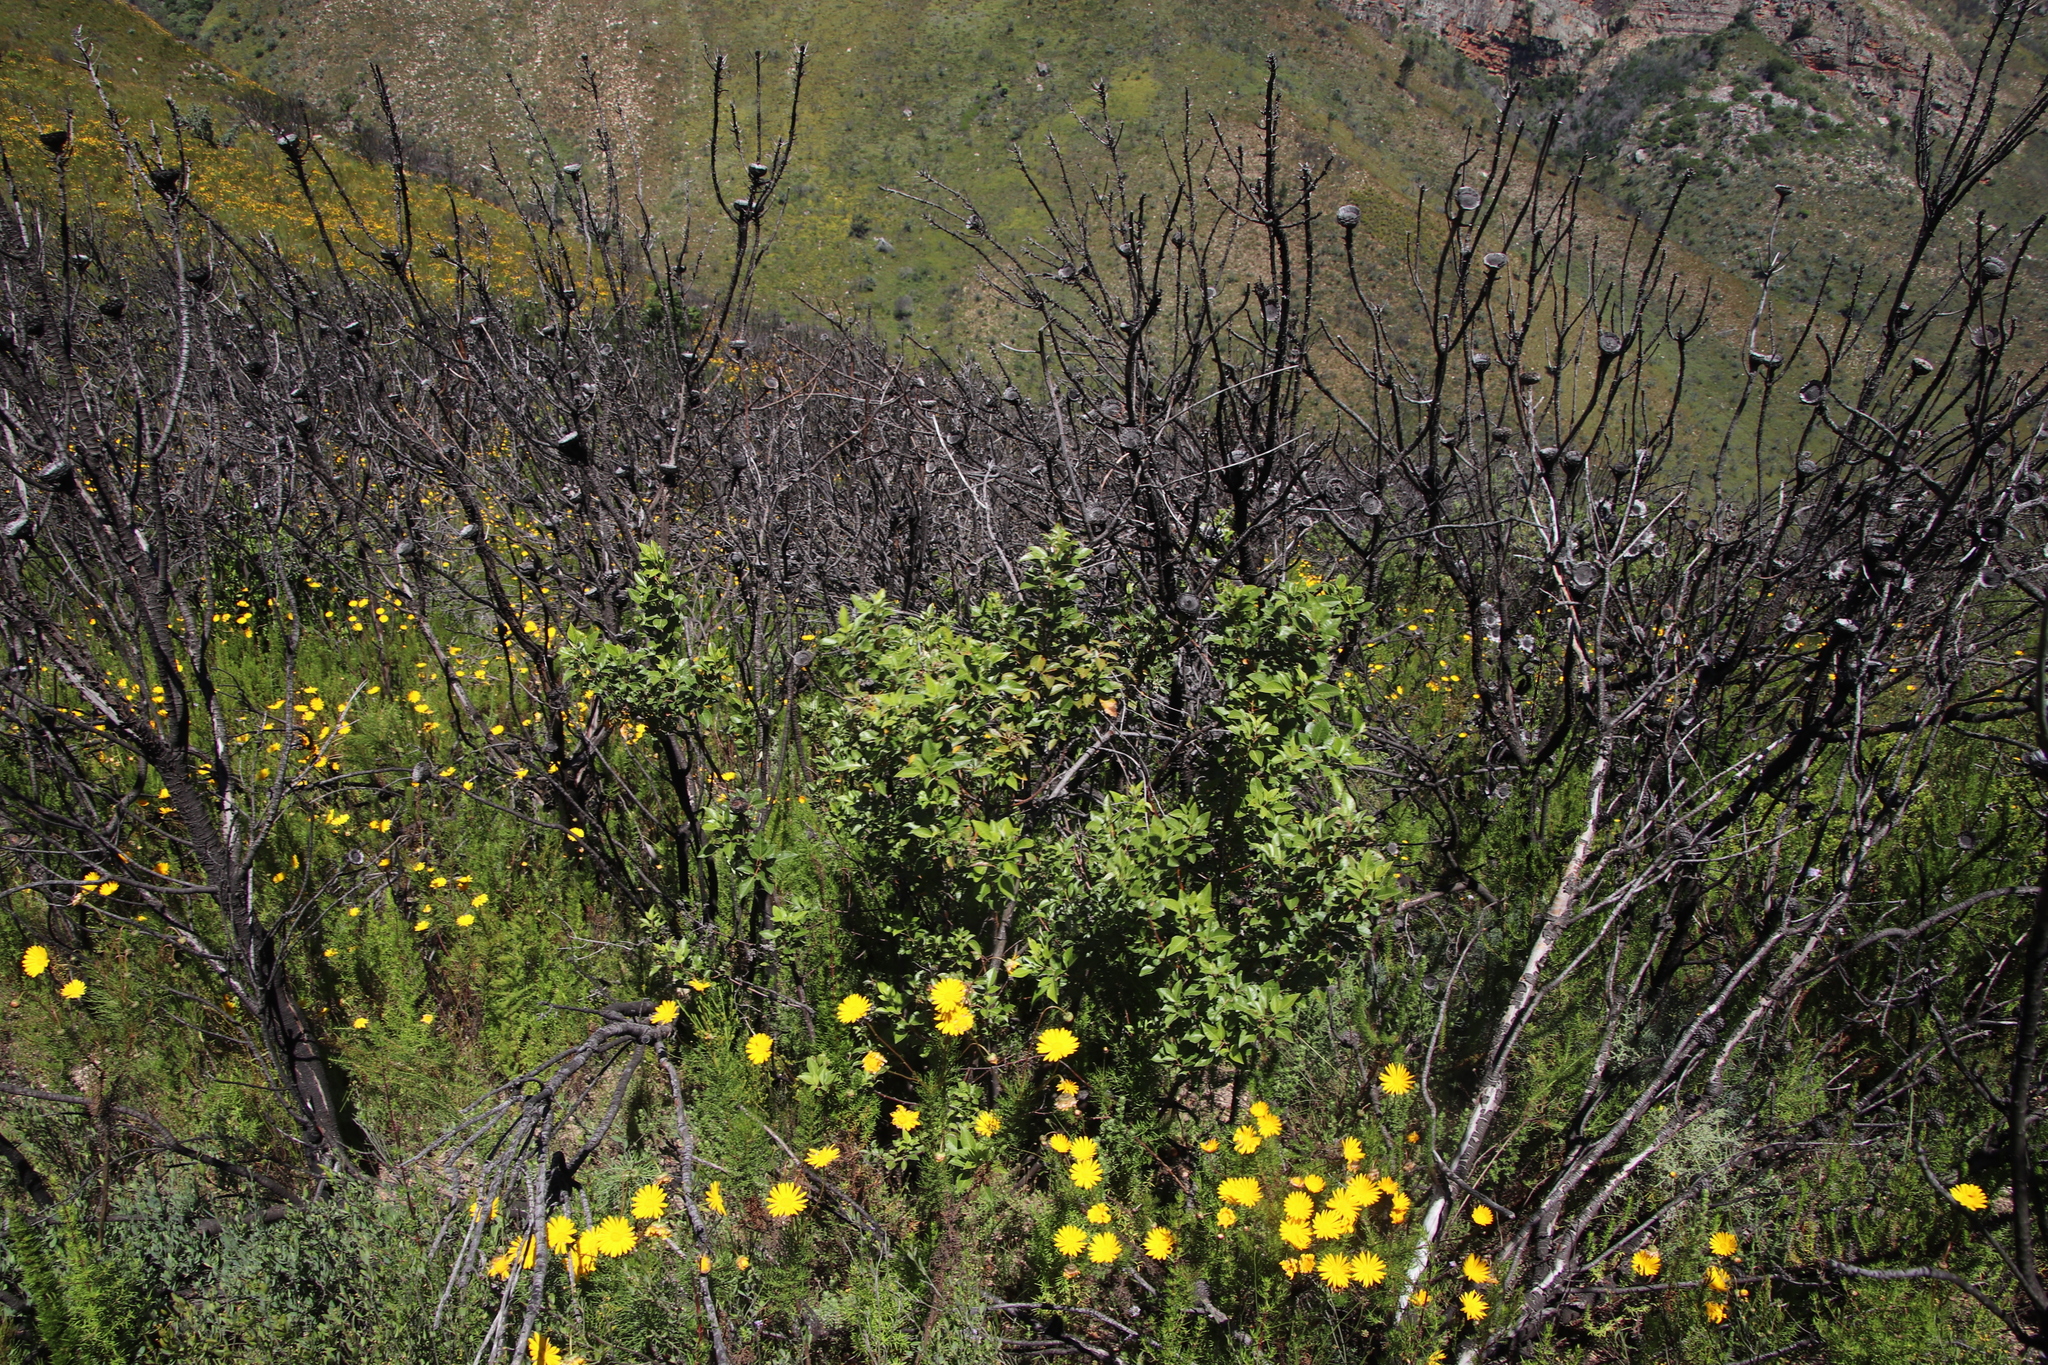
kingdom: Plantae
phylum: Tracheophyta
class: Magnoliopsida
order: Sapindales
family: Anacardiaceae
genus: Searsia
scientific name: Searsia tomentosa
